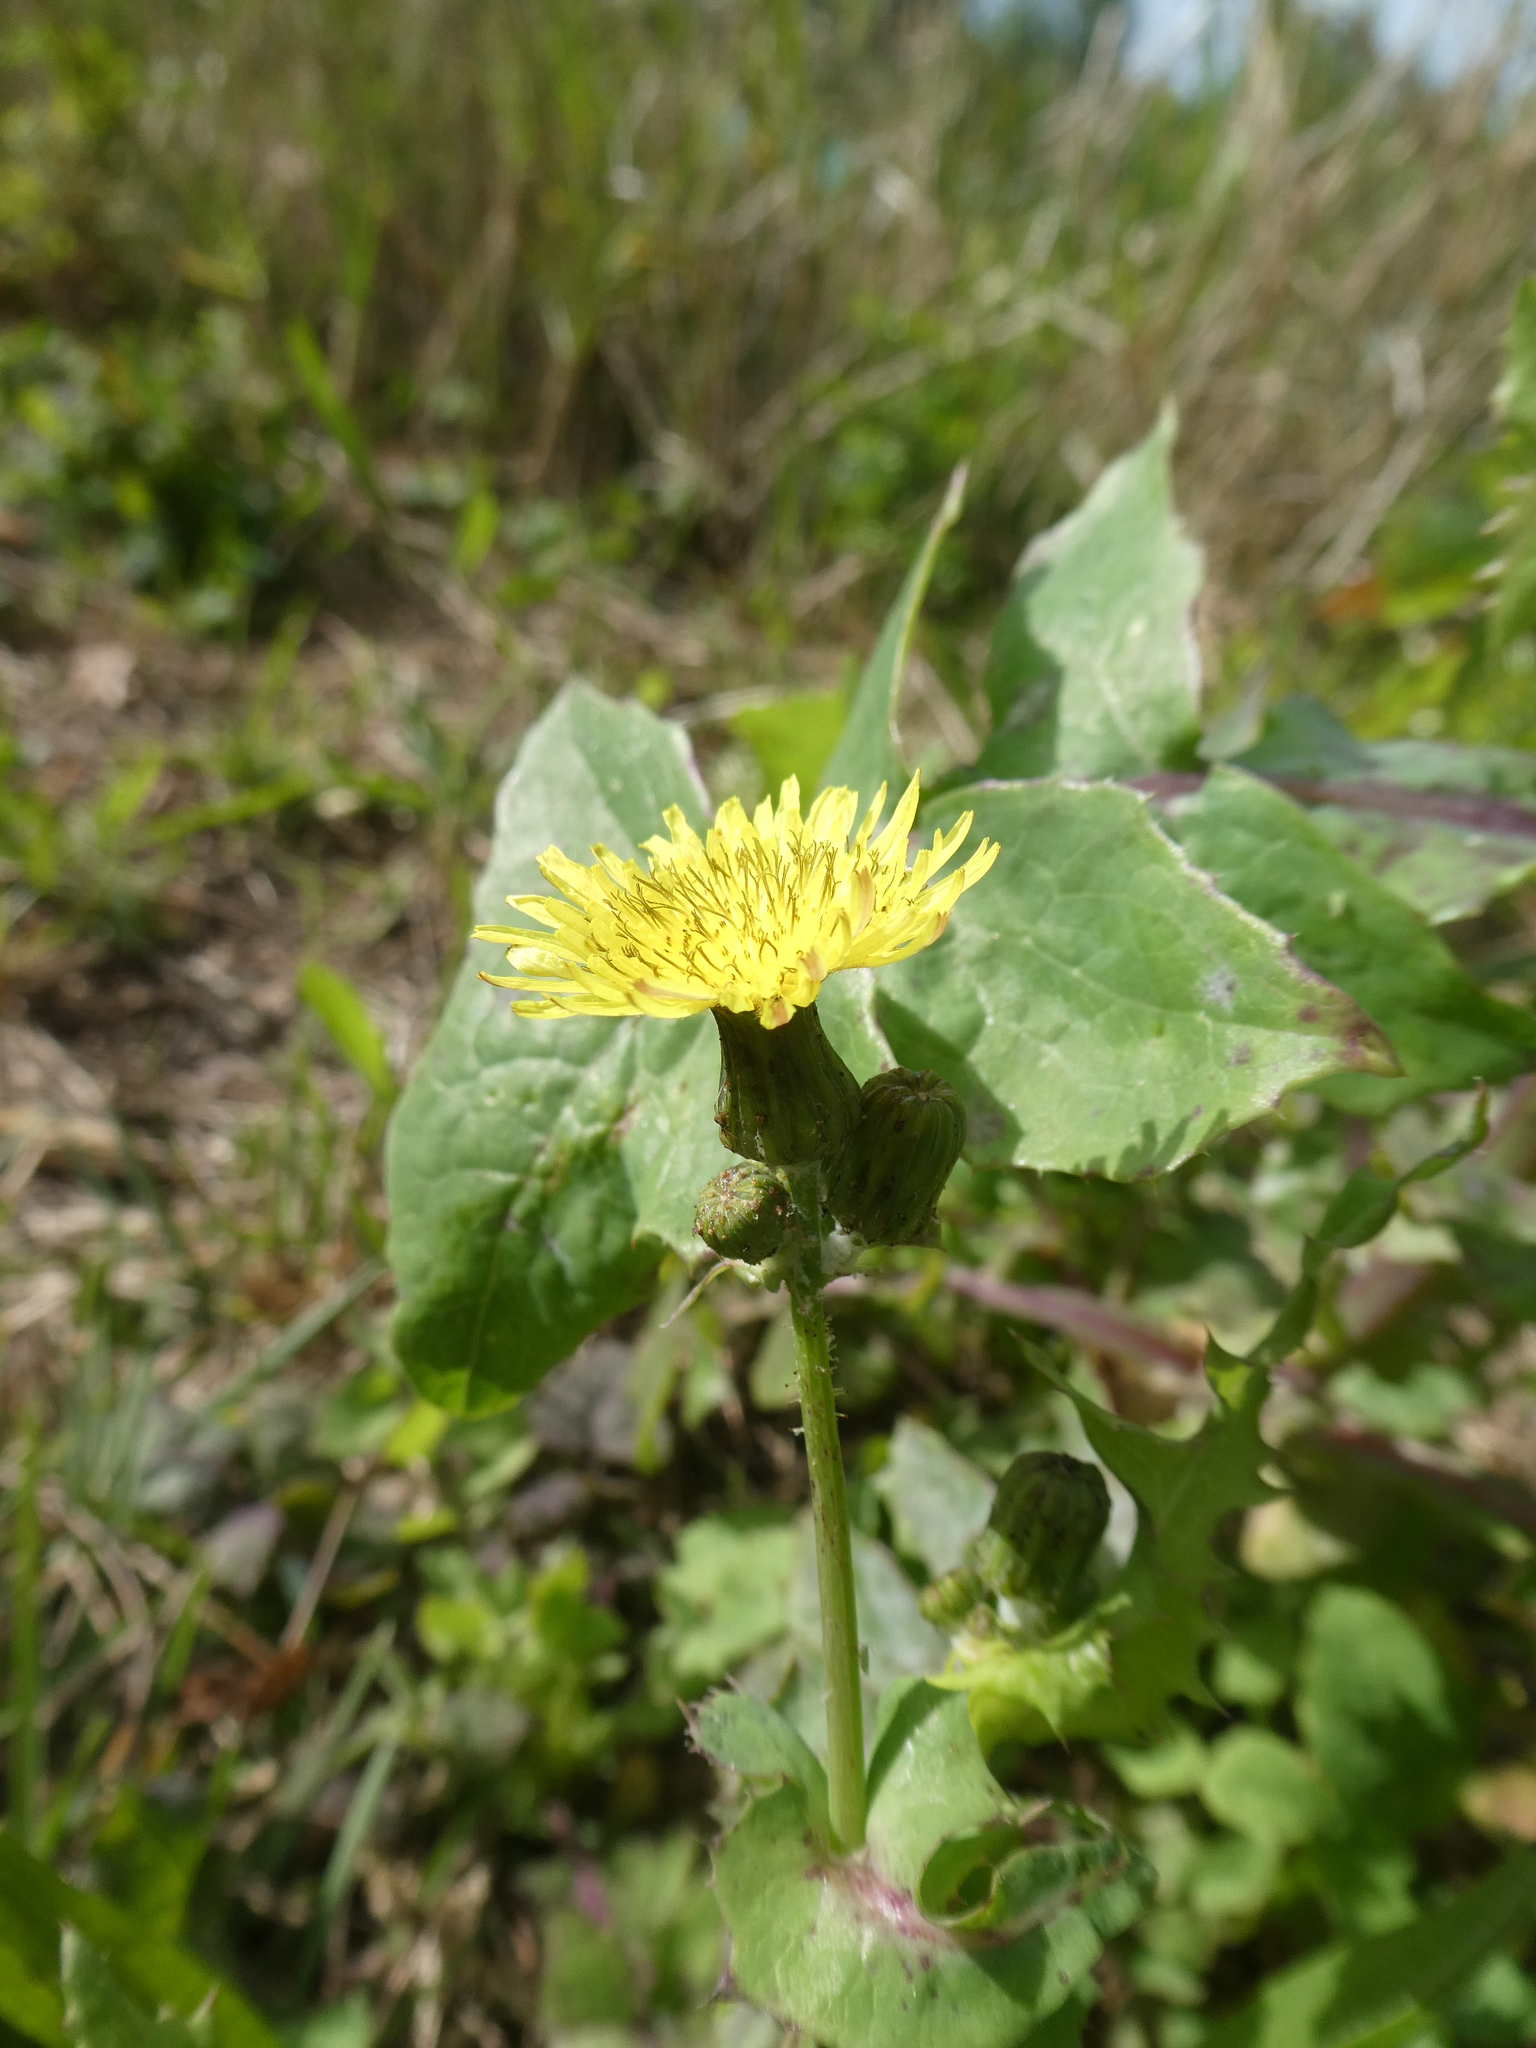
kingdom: Plantae
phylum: Tracheophyta
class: Magnoliopsida
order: Asterales
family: Asteraceae
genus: Sonchus
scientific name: Sonchus oleraceus
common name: Common sowthistle
